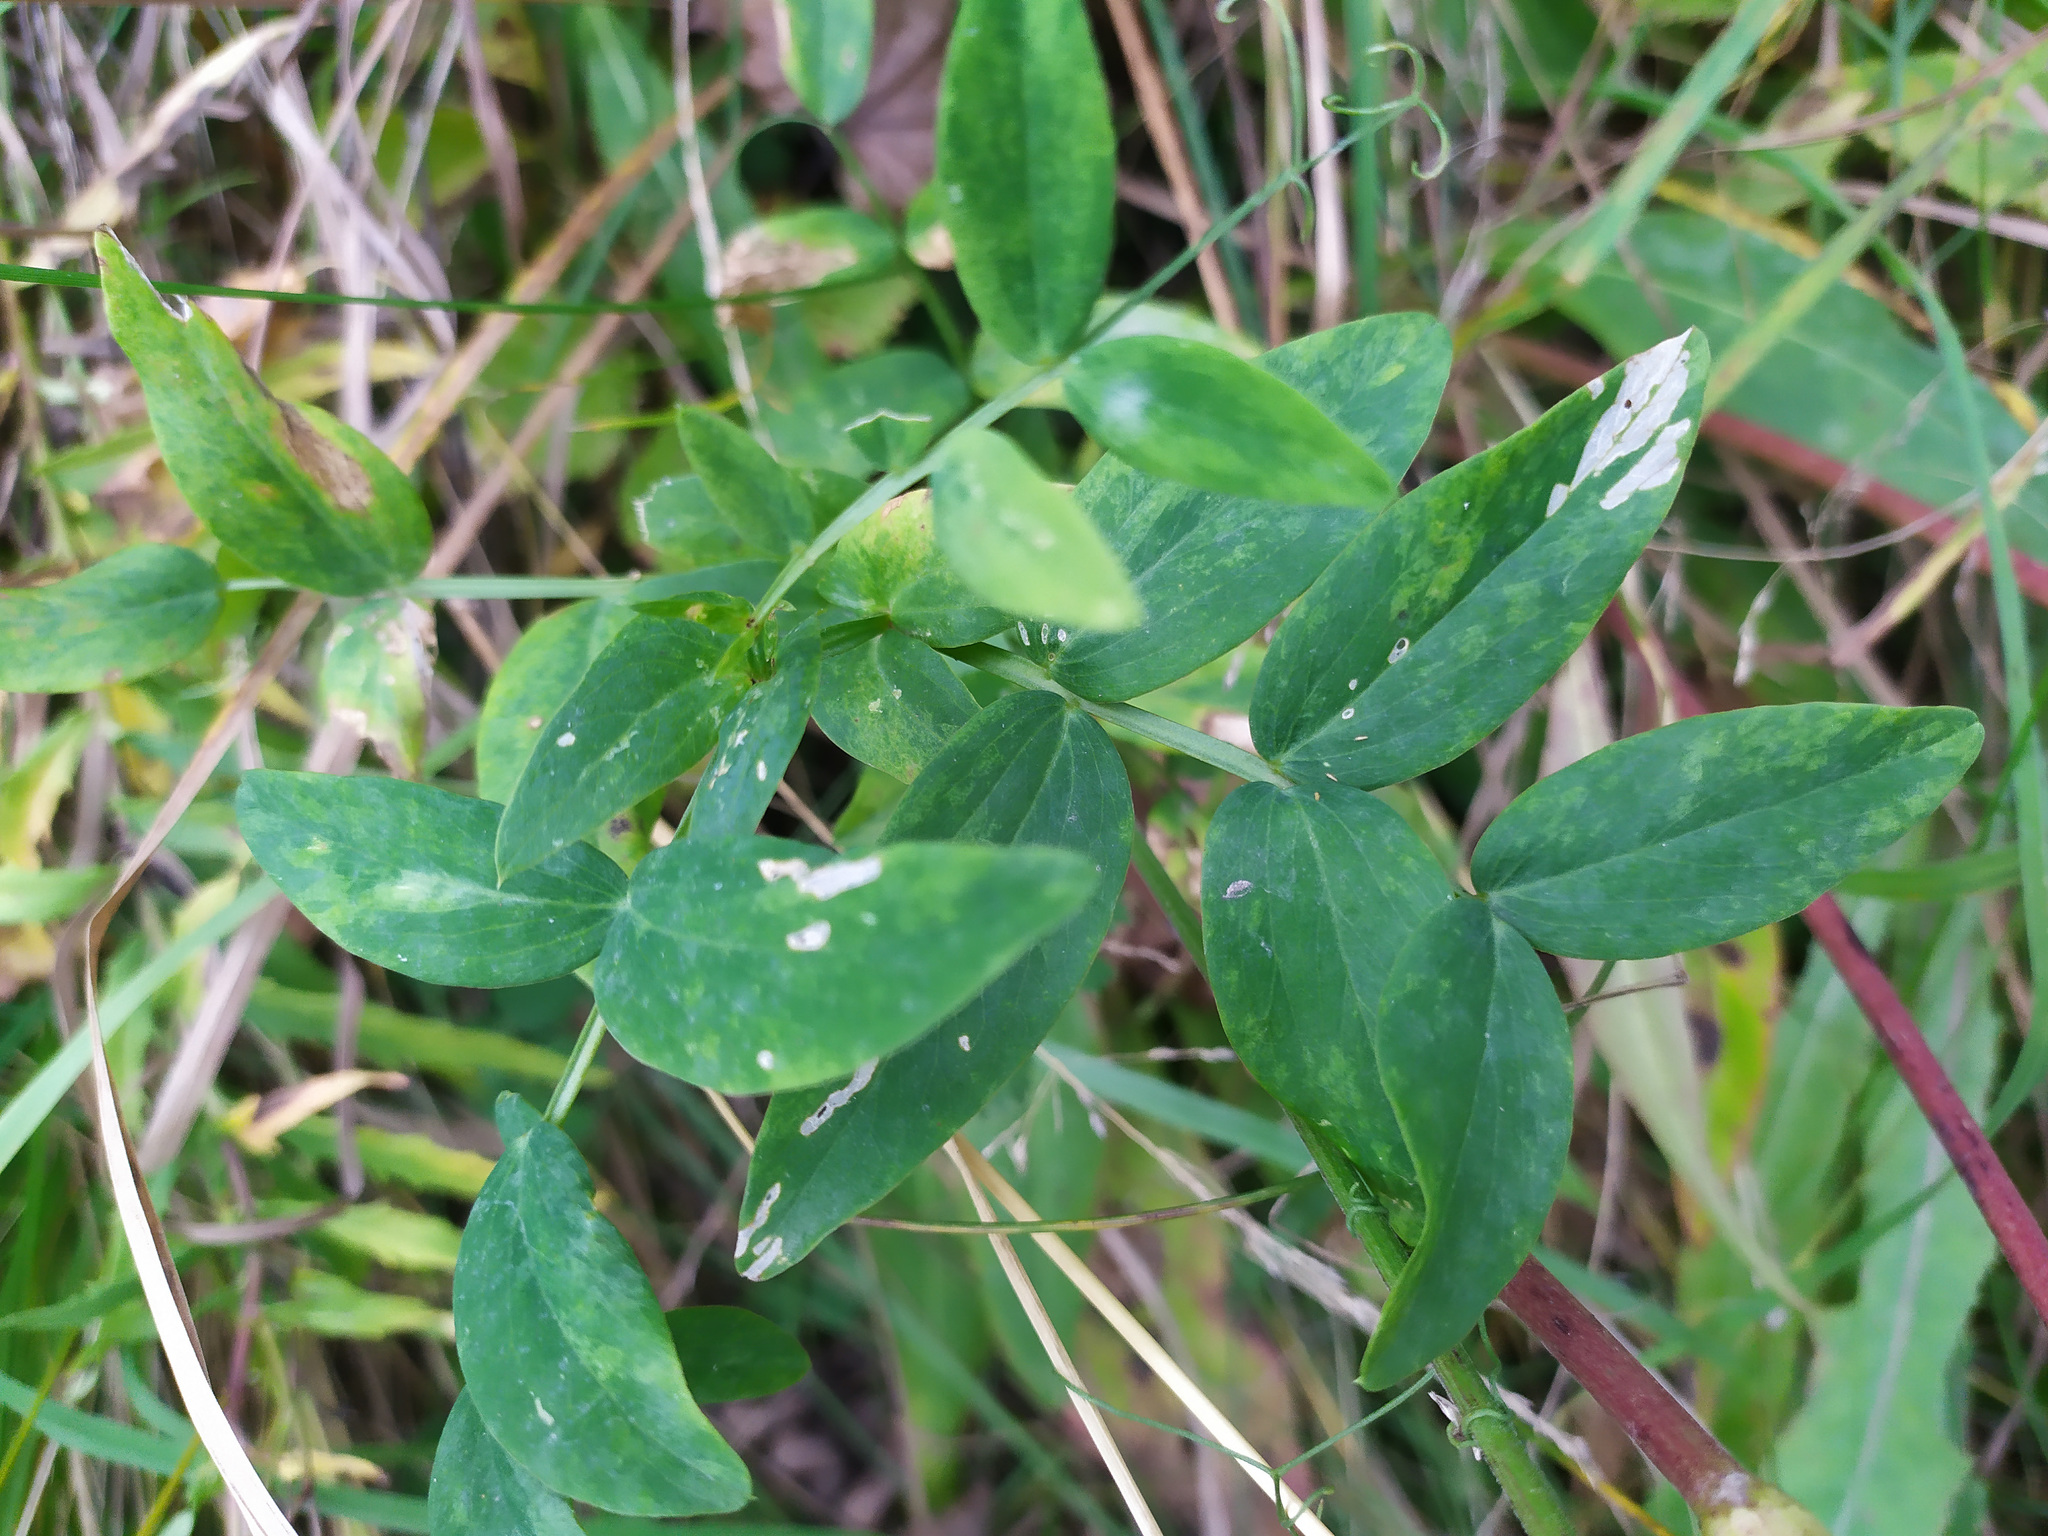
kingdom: Plantae
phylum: Tracheophyta
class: Magnoliopsida
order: Fabales
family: Fabaceae
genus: Lathyrus
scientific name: Lathyrus pisiformis
